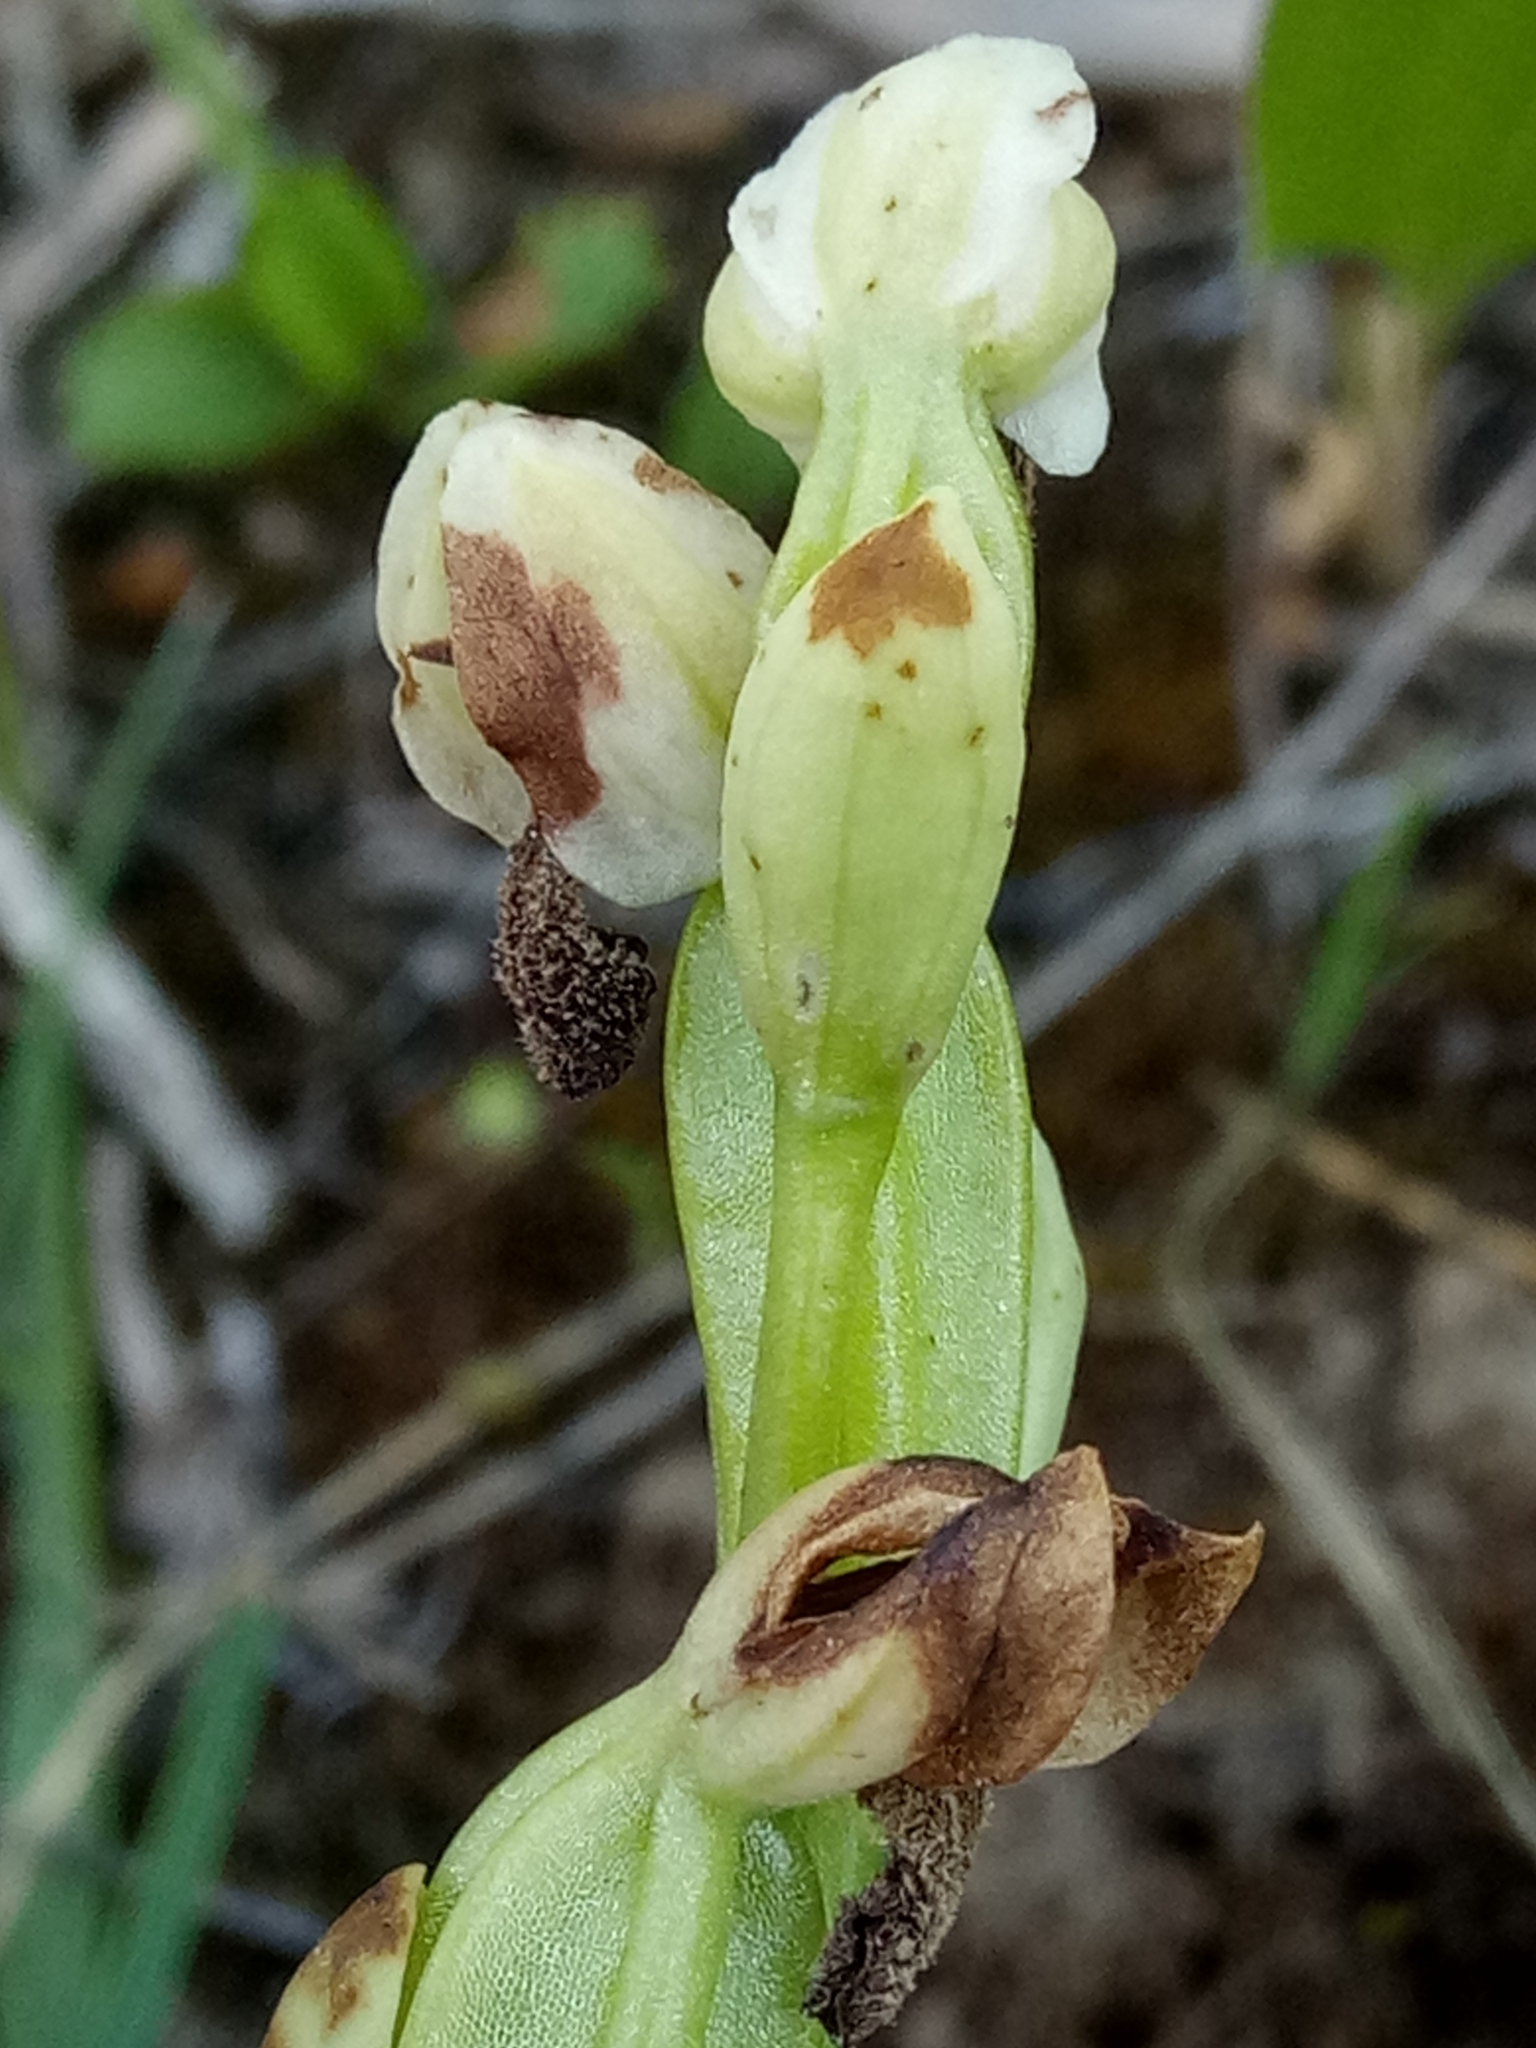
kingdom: Plantae
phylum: Tracheophyta
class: Liliopsida
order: Asparagales
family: Orchidaceae
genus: Ophrys
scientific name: Ophrys fusca
